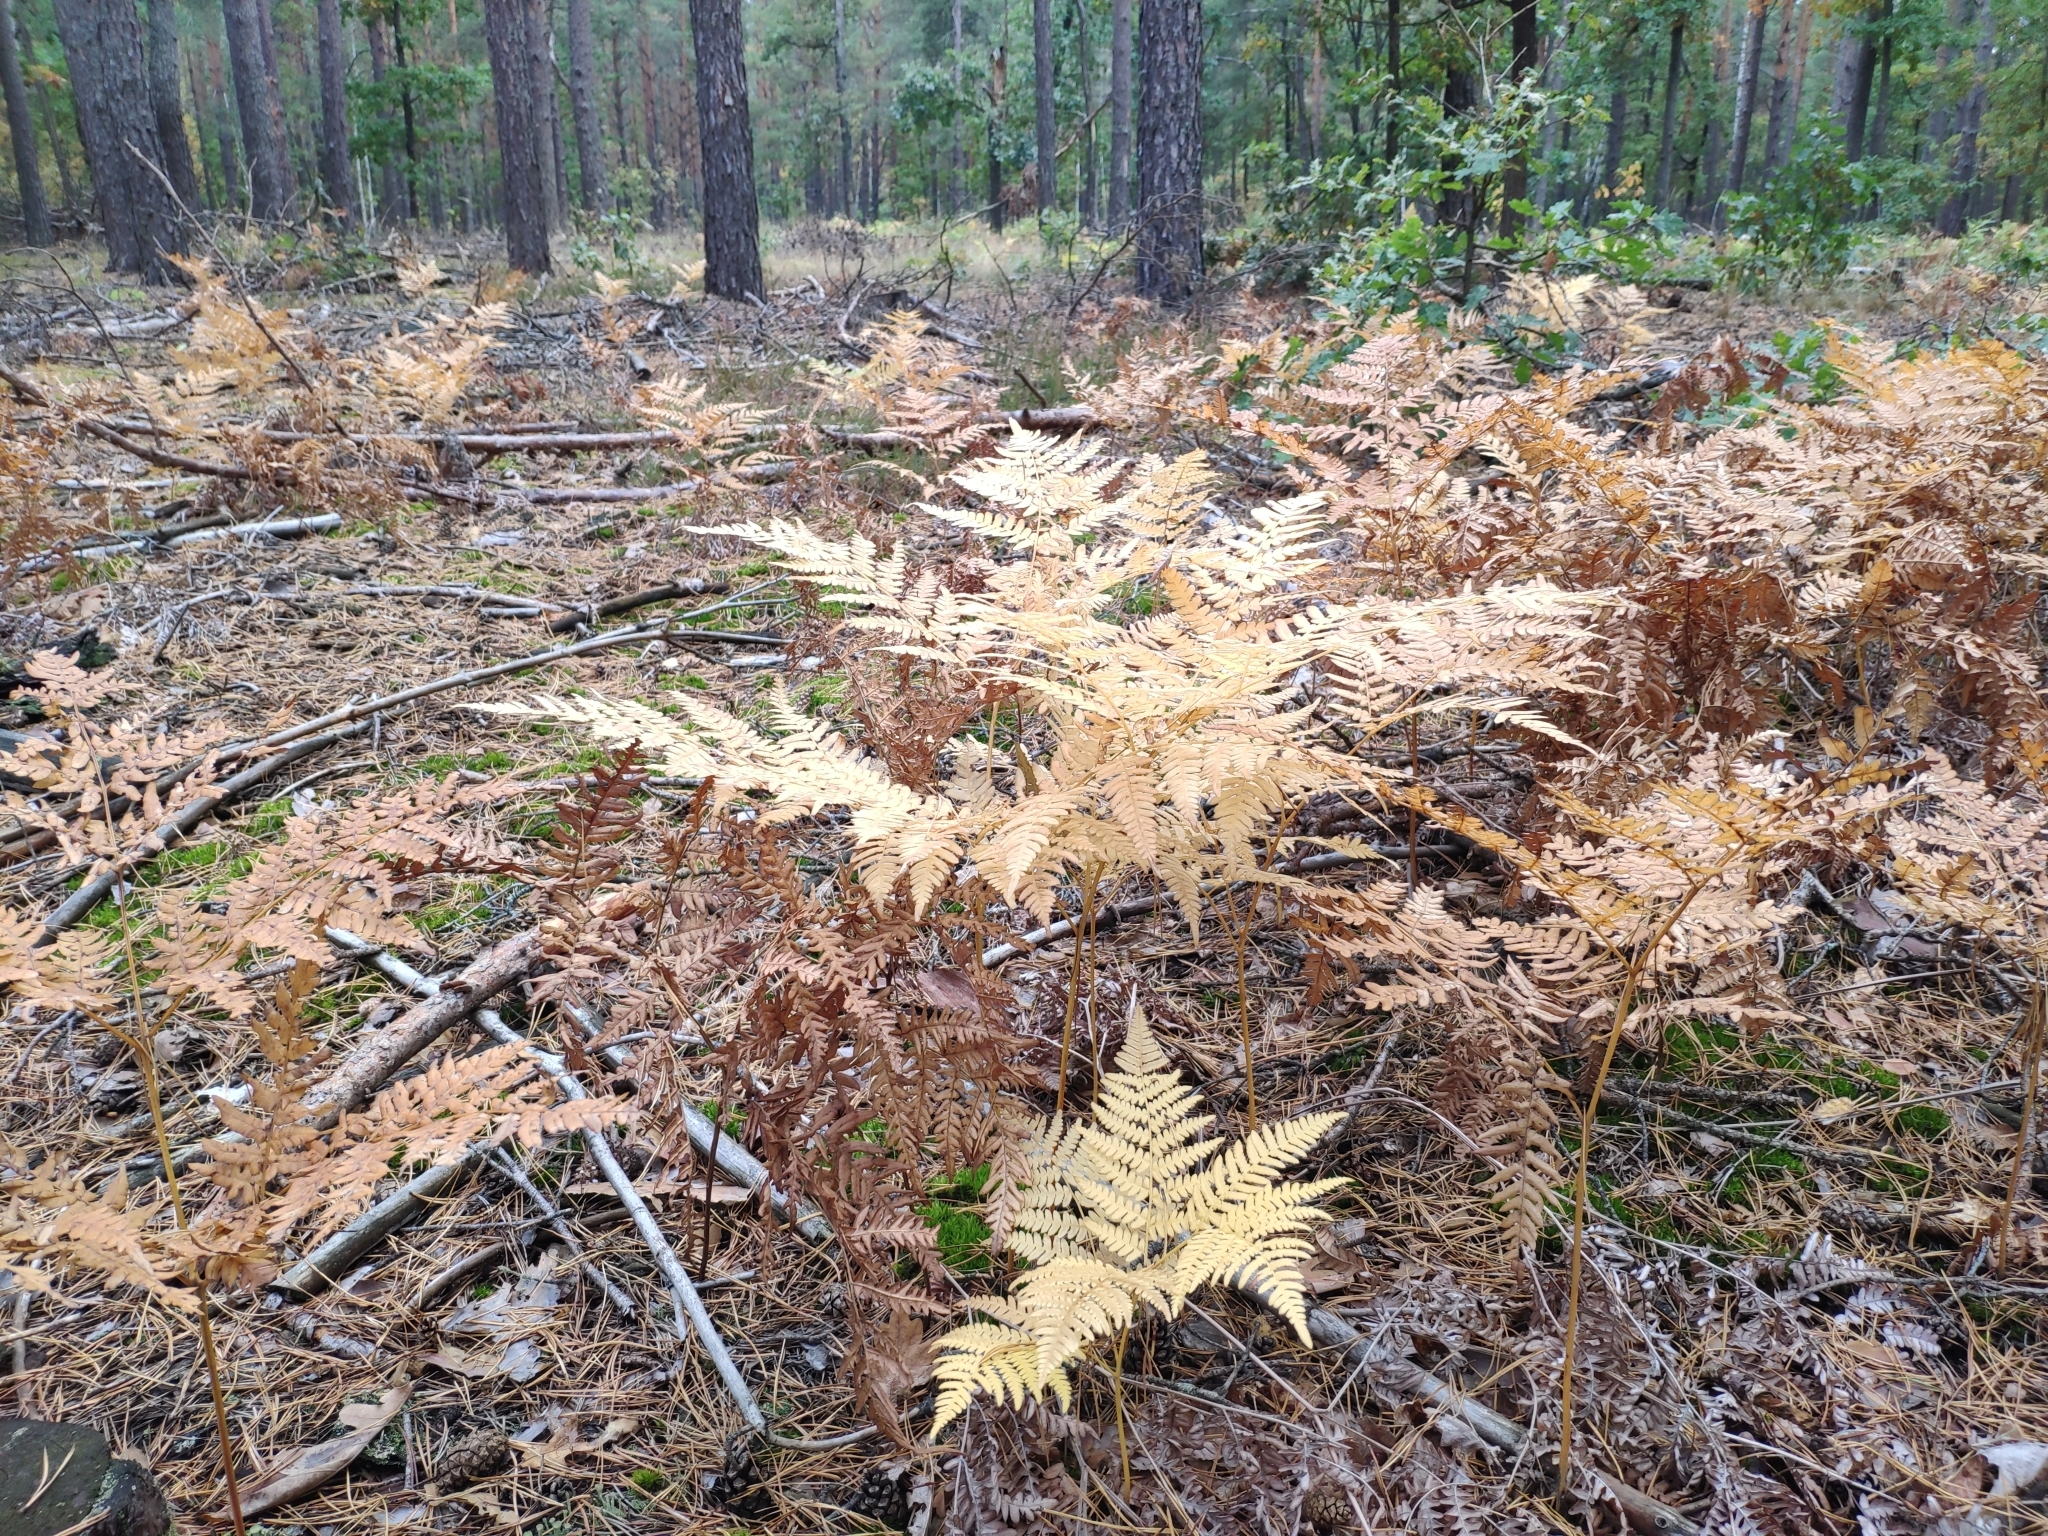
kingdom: Plantae
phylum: Tracheophyta
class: Polypodiopsida
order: Polypodiales
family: Dennstaedtiaceae
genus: Pteridium
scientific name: Pteridium aquilinum
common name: Bracken
